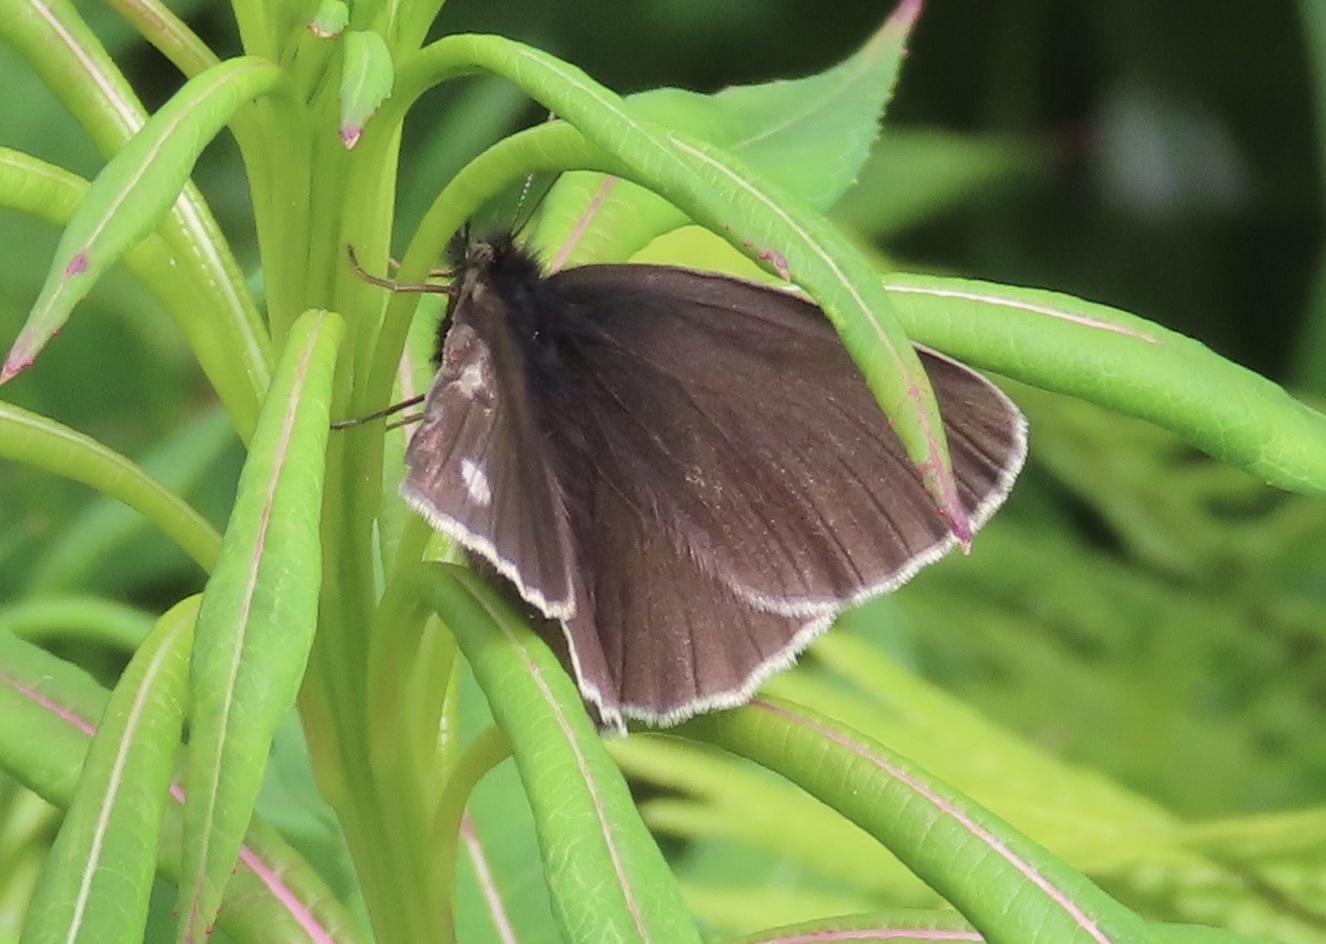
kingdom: Animalia
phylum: Arthropoda
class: Insecta
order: Lepidoptera
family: Nymphalidae
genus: Aphantopus
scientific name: Aphantopus hyperantus
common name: Ringlet
